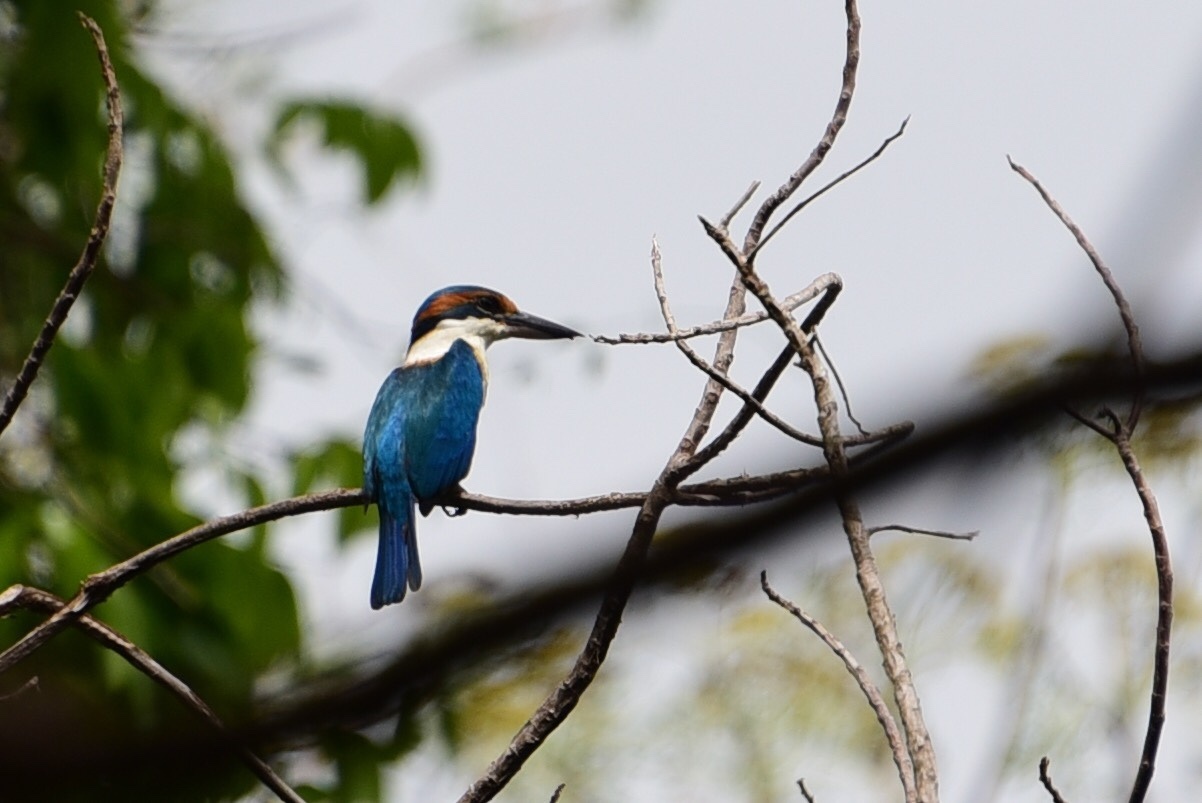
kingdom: Animalia
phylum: Chordata
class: Aves
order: Coraciiformes
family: Alcedinidae
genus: Todiramphus
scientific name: Todiramphus sacer
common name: Pacific kingfisher
